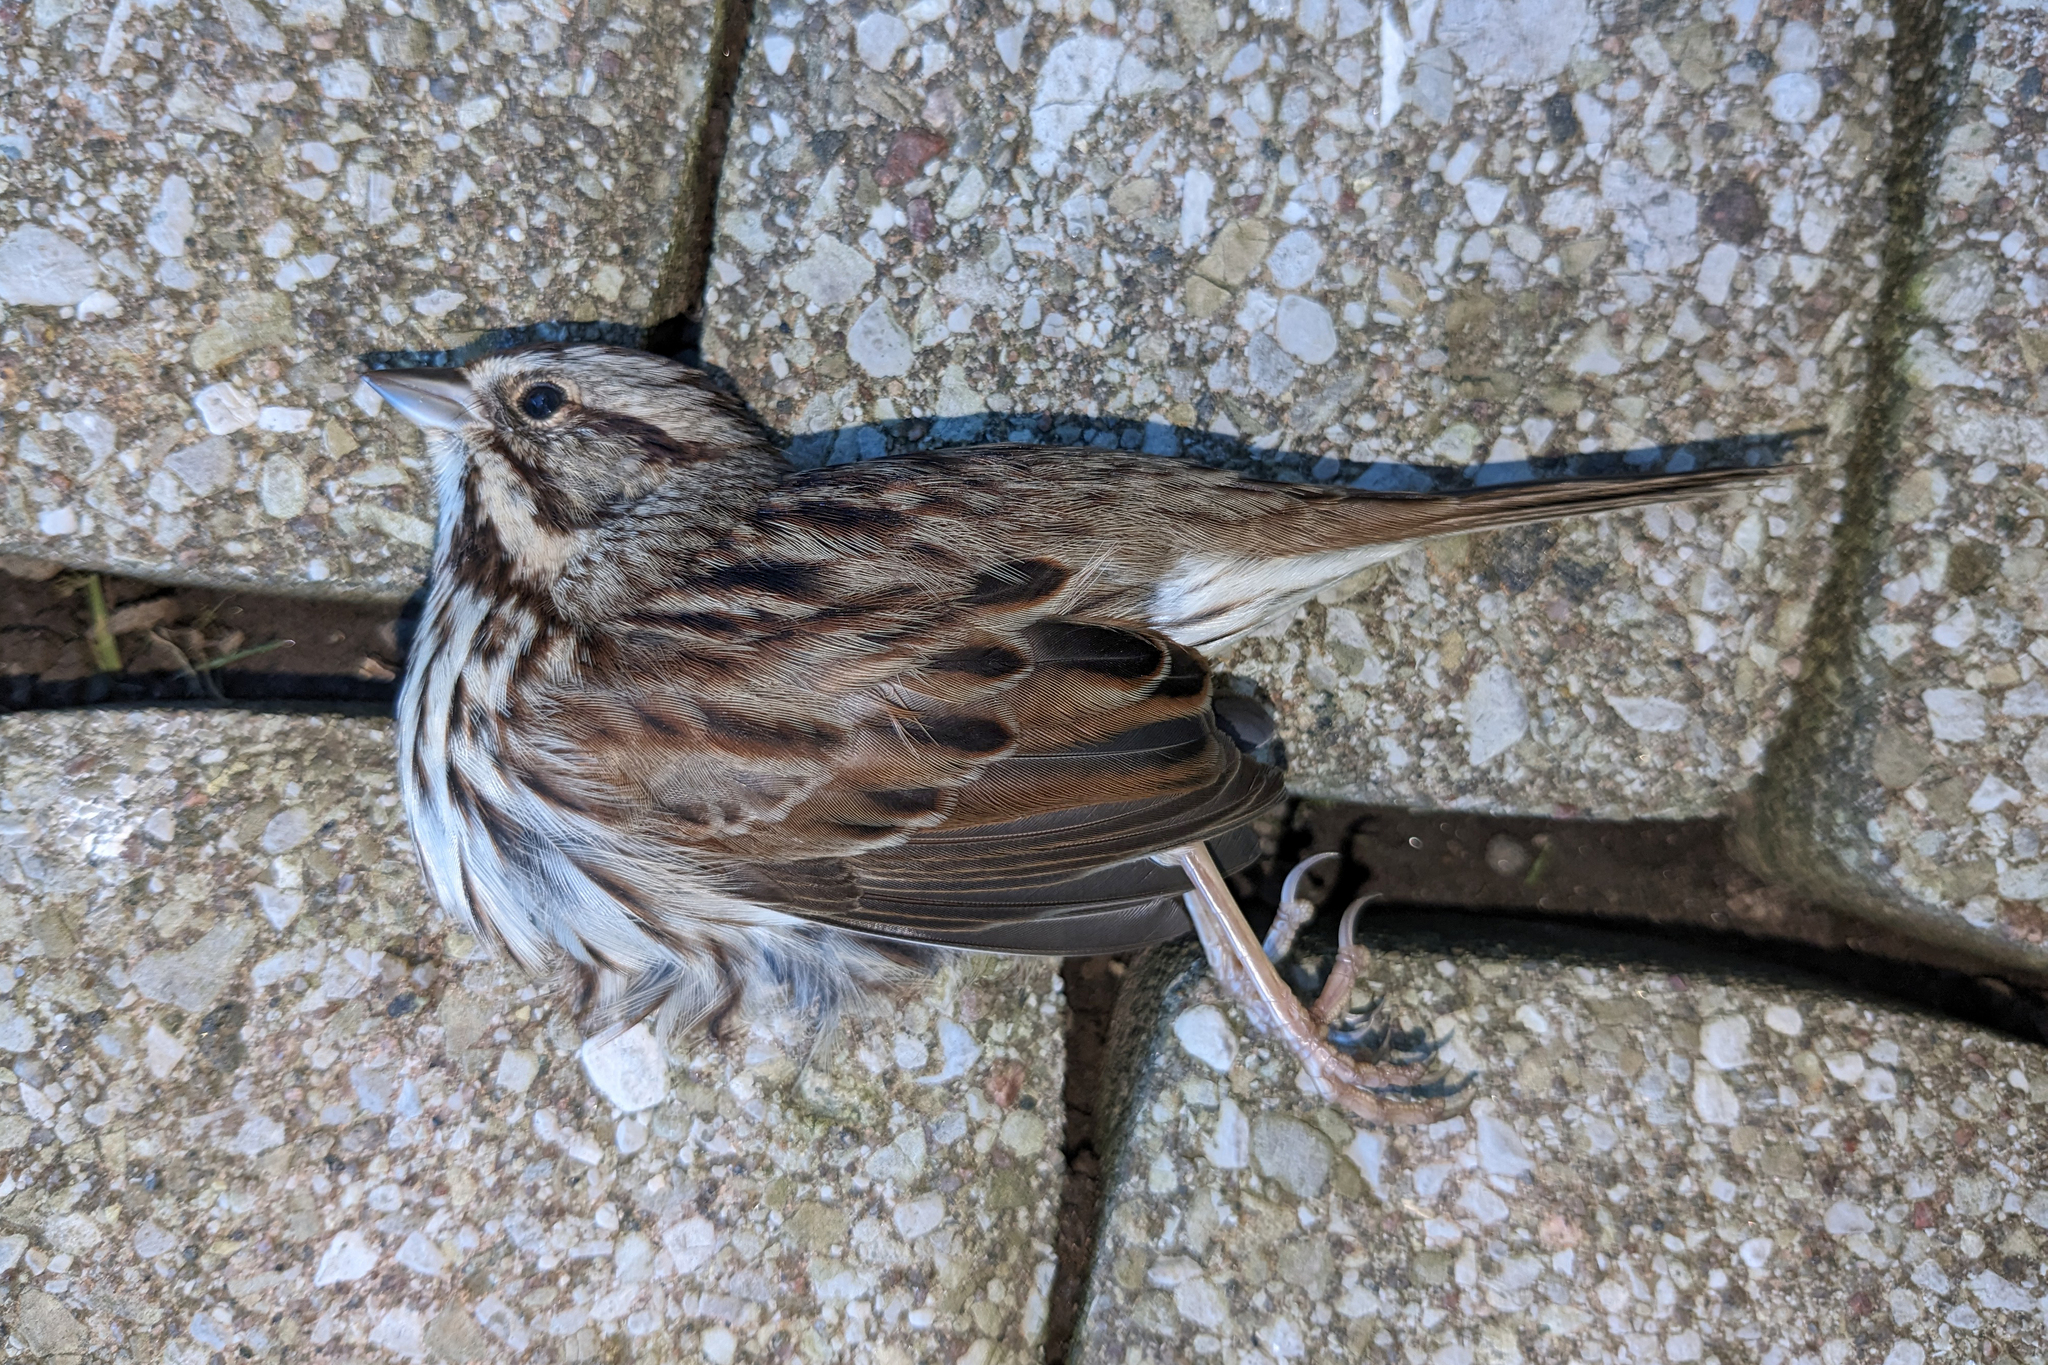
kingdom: Animalia
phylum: Chordata
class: Aves
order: Passeriformes
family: Passerellidae
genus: Melospiza
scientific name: Melospiza melodia
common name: Song sparrow
